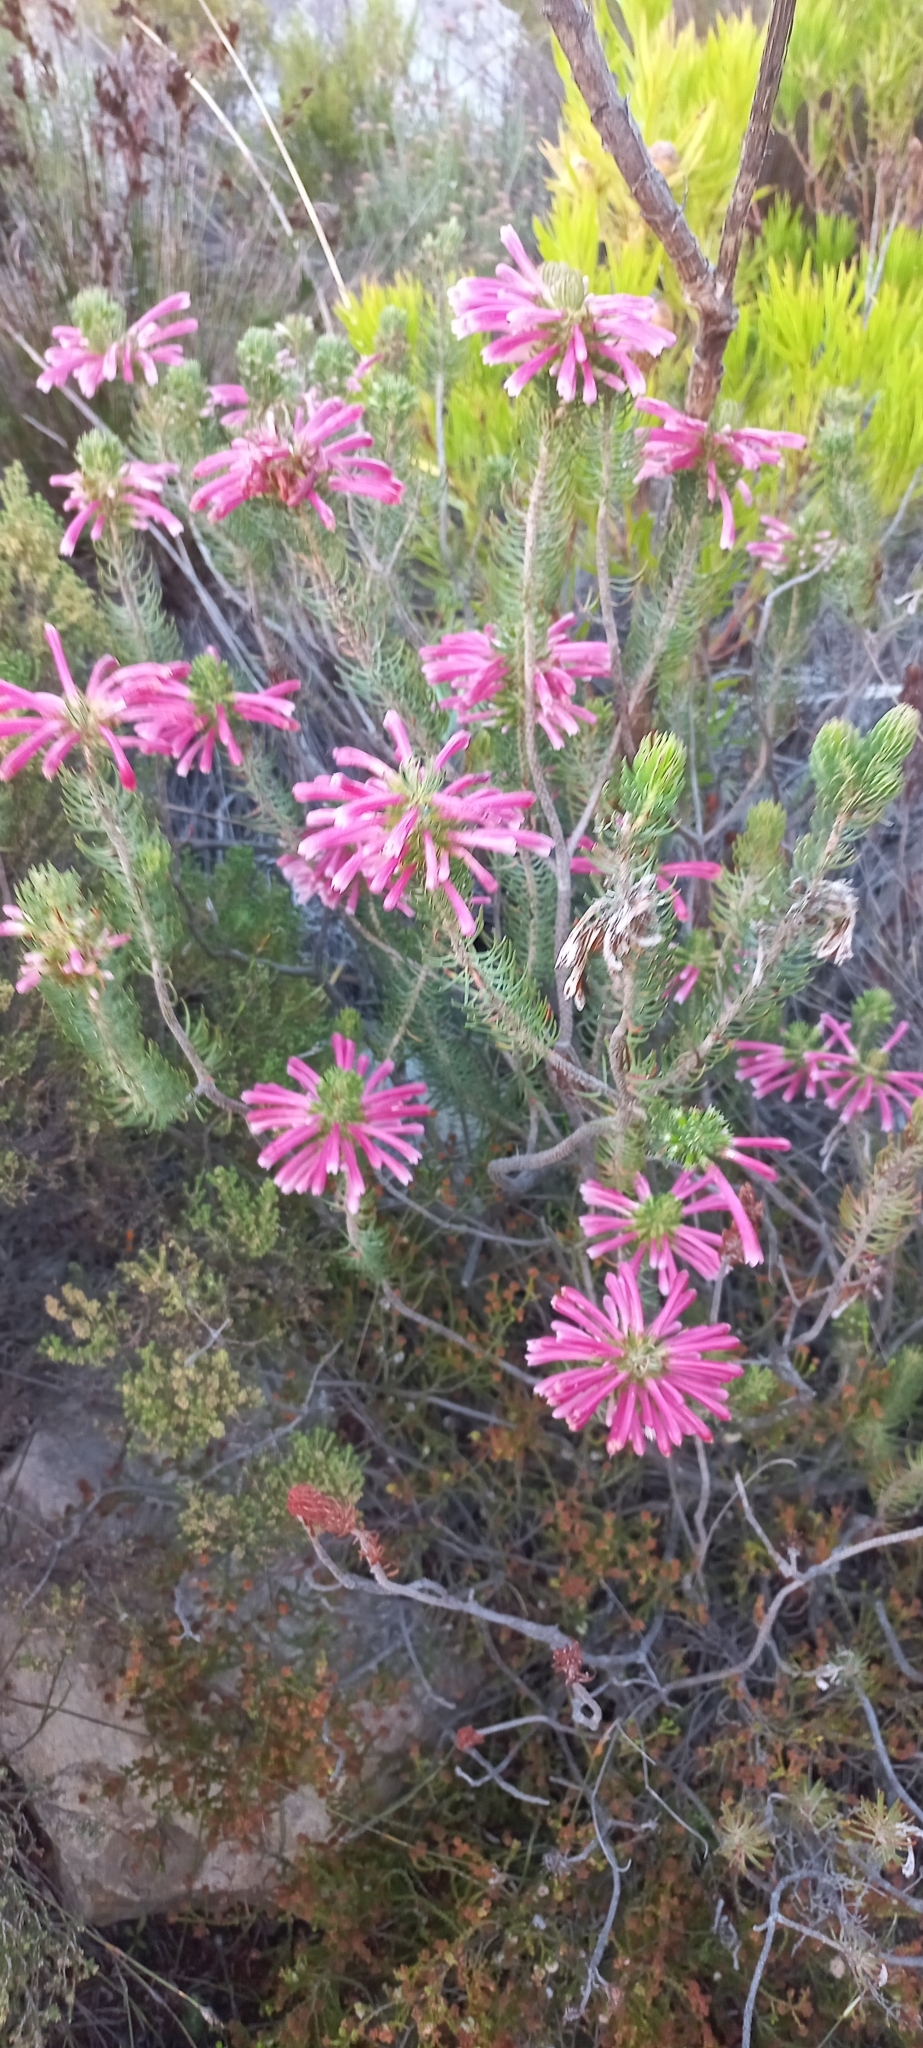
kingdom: Plantae
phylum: Tracheophyta
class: Magnoliopsida
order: Ericales
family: Ericaceae
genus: Erica
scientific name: Erica thomae
